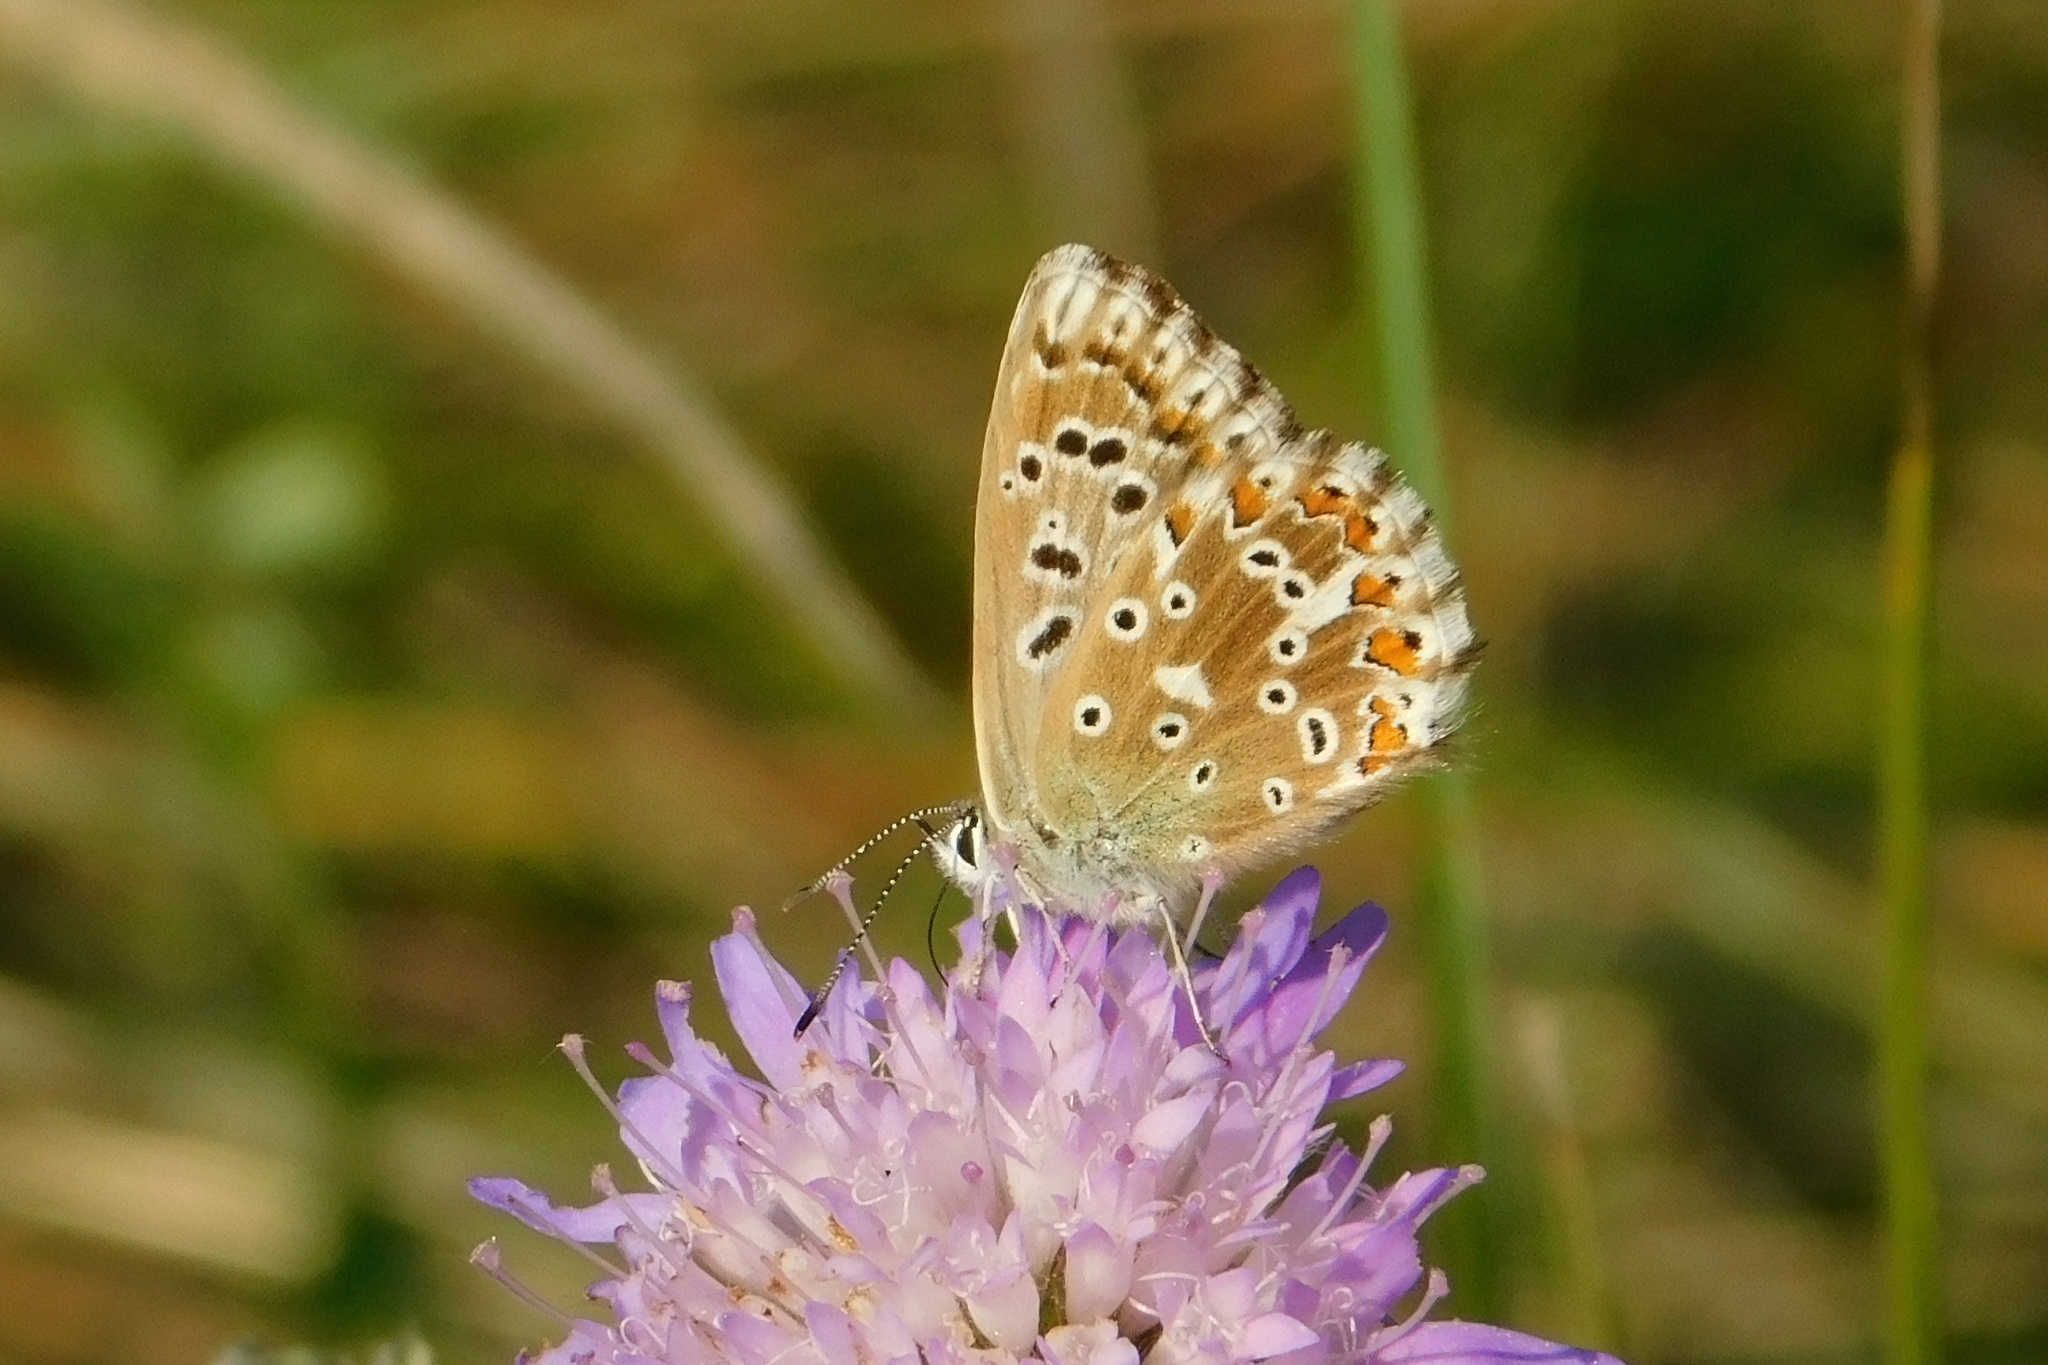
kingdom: Animalia
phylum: Arthropoda
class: Insecta
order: Lepidoptera
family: Lycaenidae
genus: Lysandra
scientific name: Lysandra coridon
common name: Chalkhill blue
